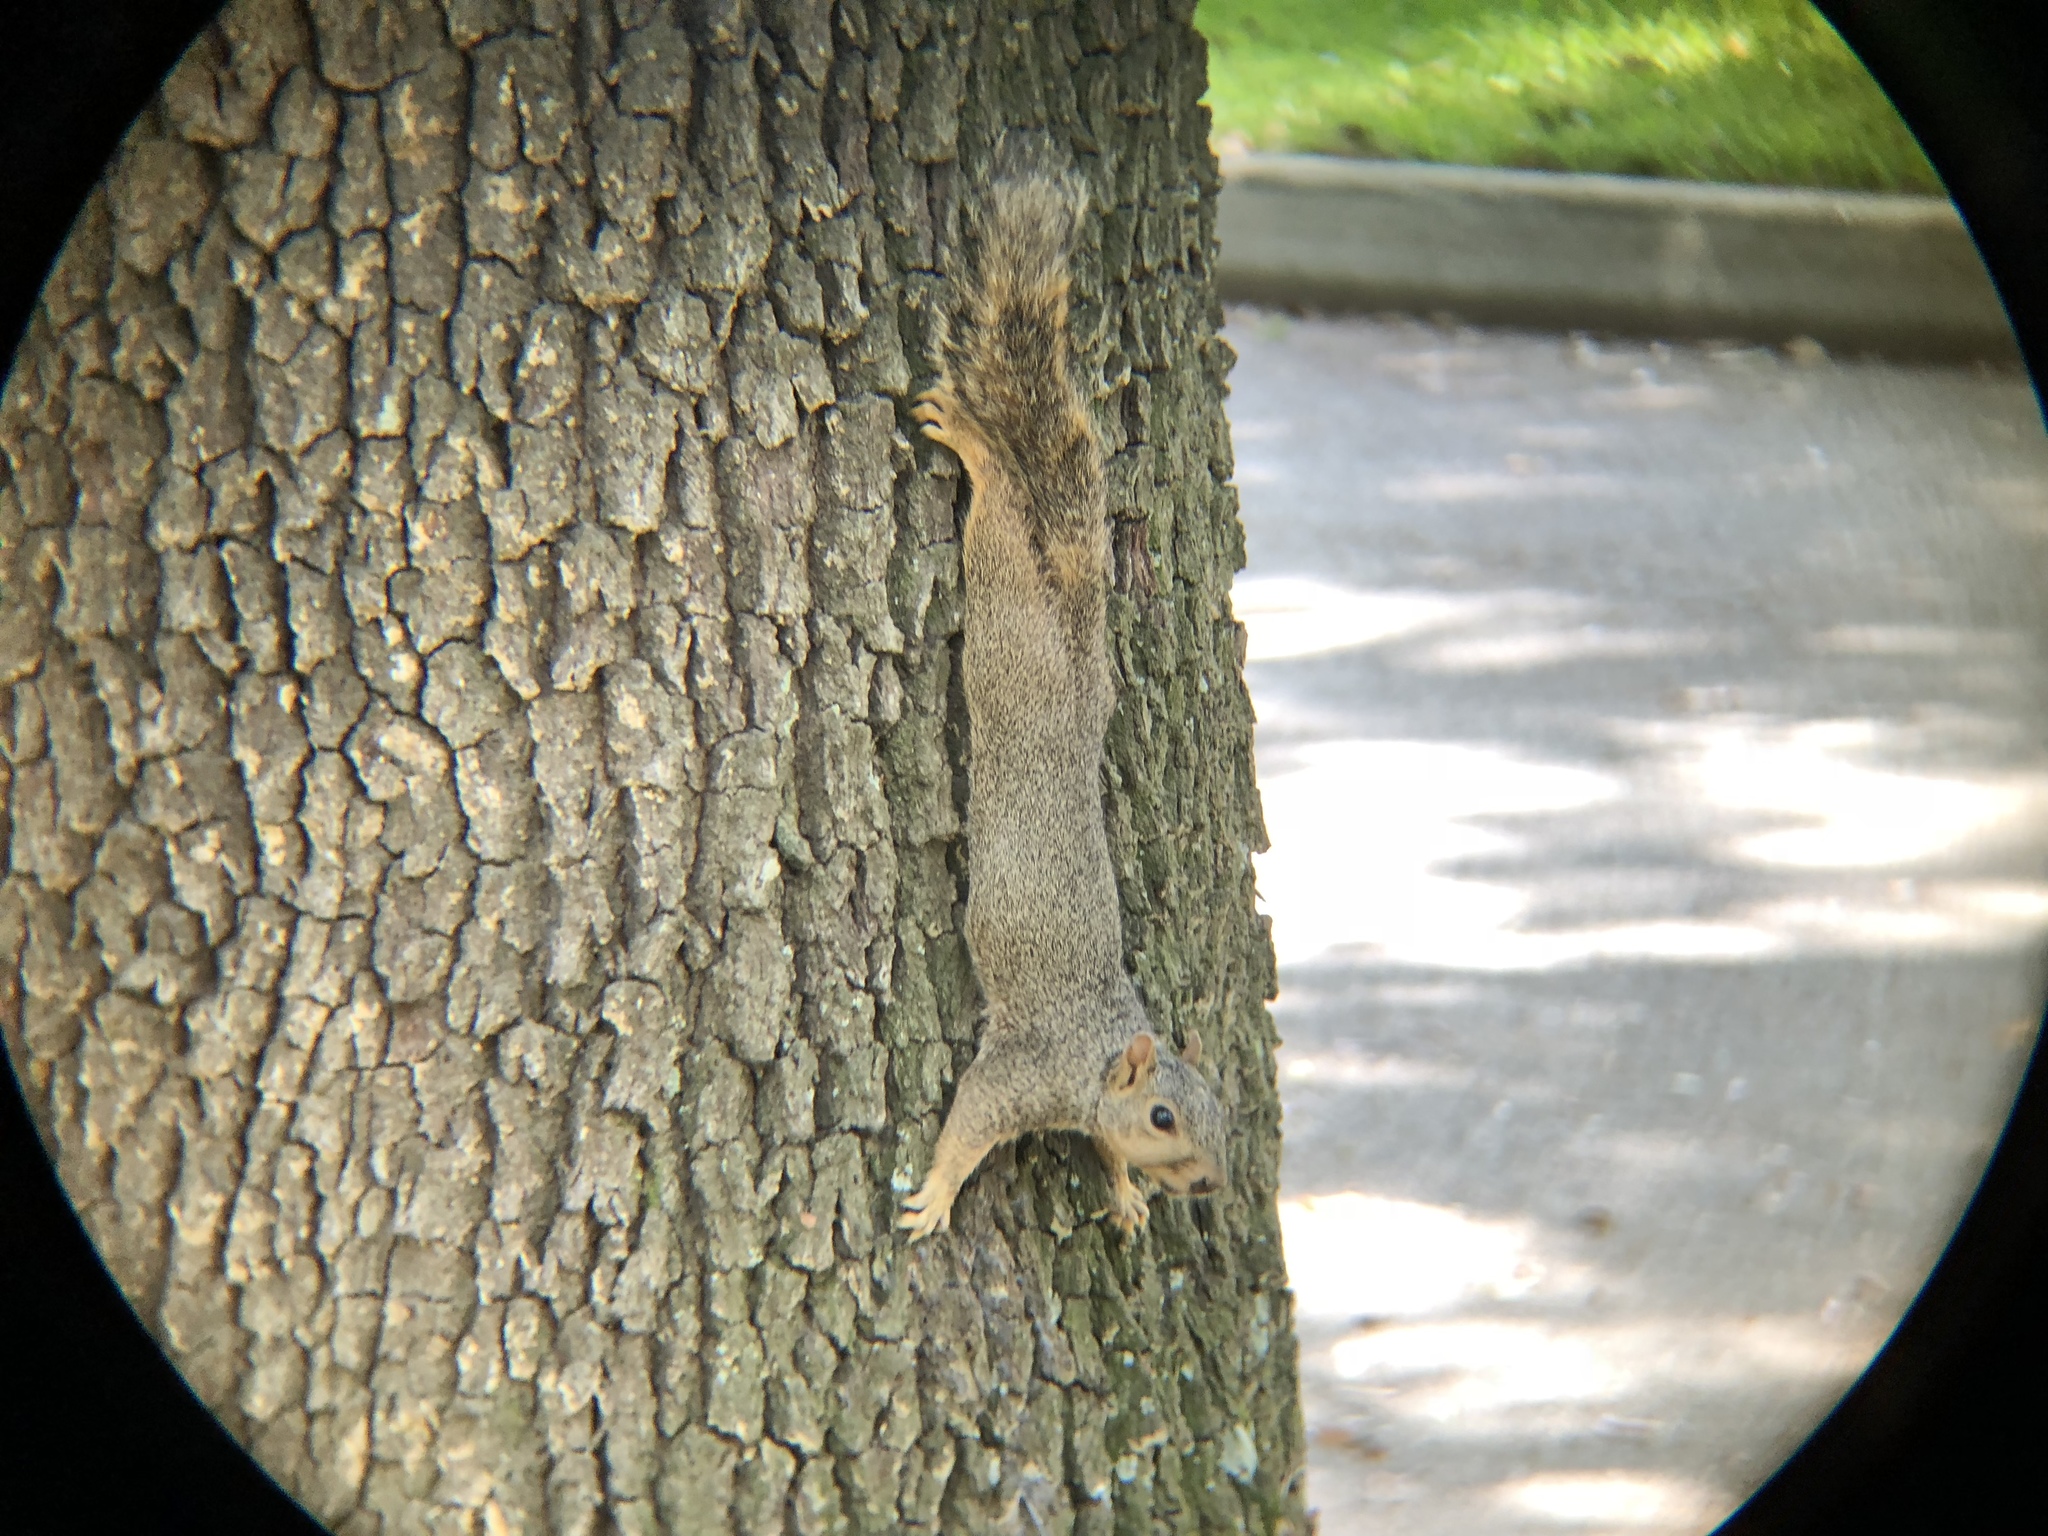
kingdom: Animalia
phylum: Chordata
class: Mammalia
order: Rodentia
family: Sciuridae
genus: Sciurus
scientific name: Sciurus niger
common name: Fox squirrel
